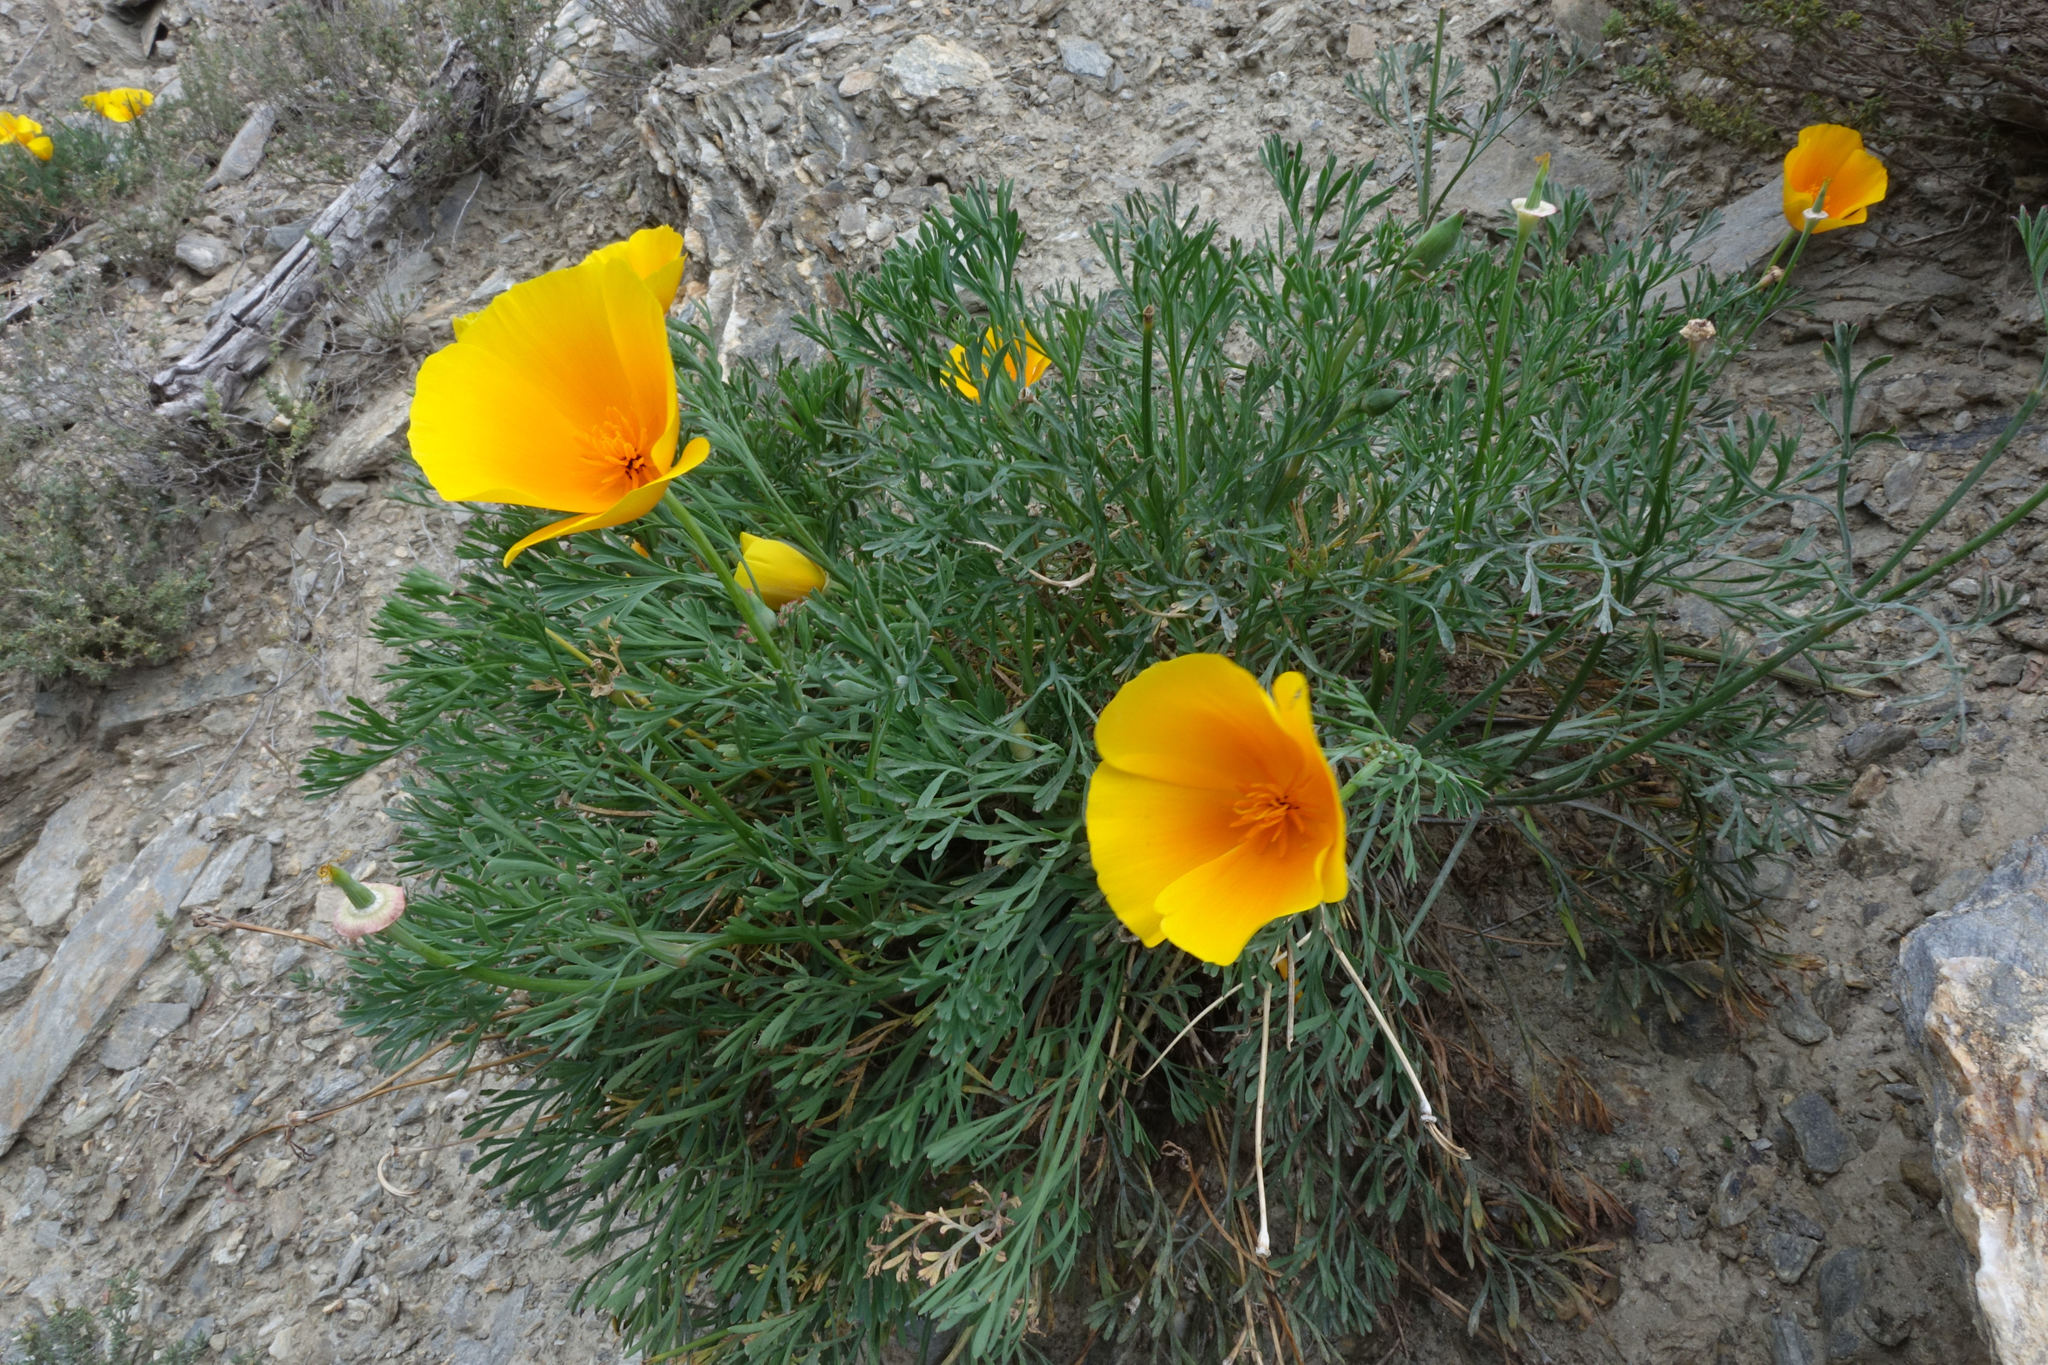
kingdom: Plantae
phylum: Tracheophyta
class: Magnoliopsida
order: Ranunculales
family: Papaveraceae
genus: Eschscholzia
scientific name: Eschscholzia californica
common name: California poppy
